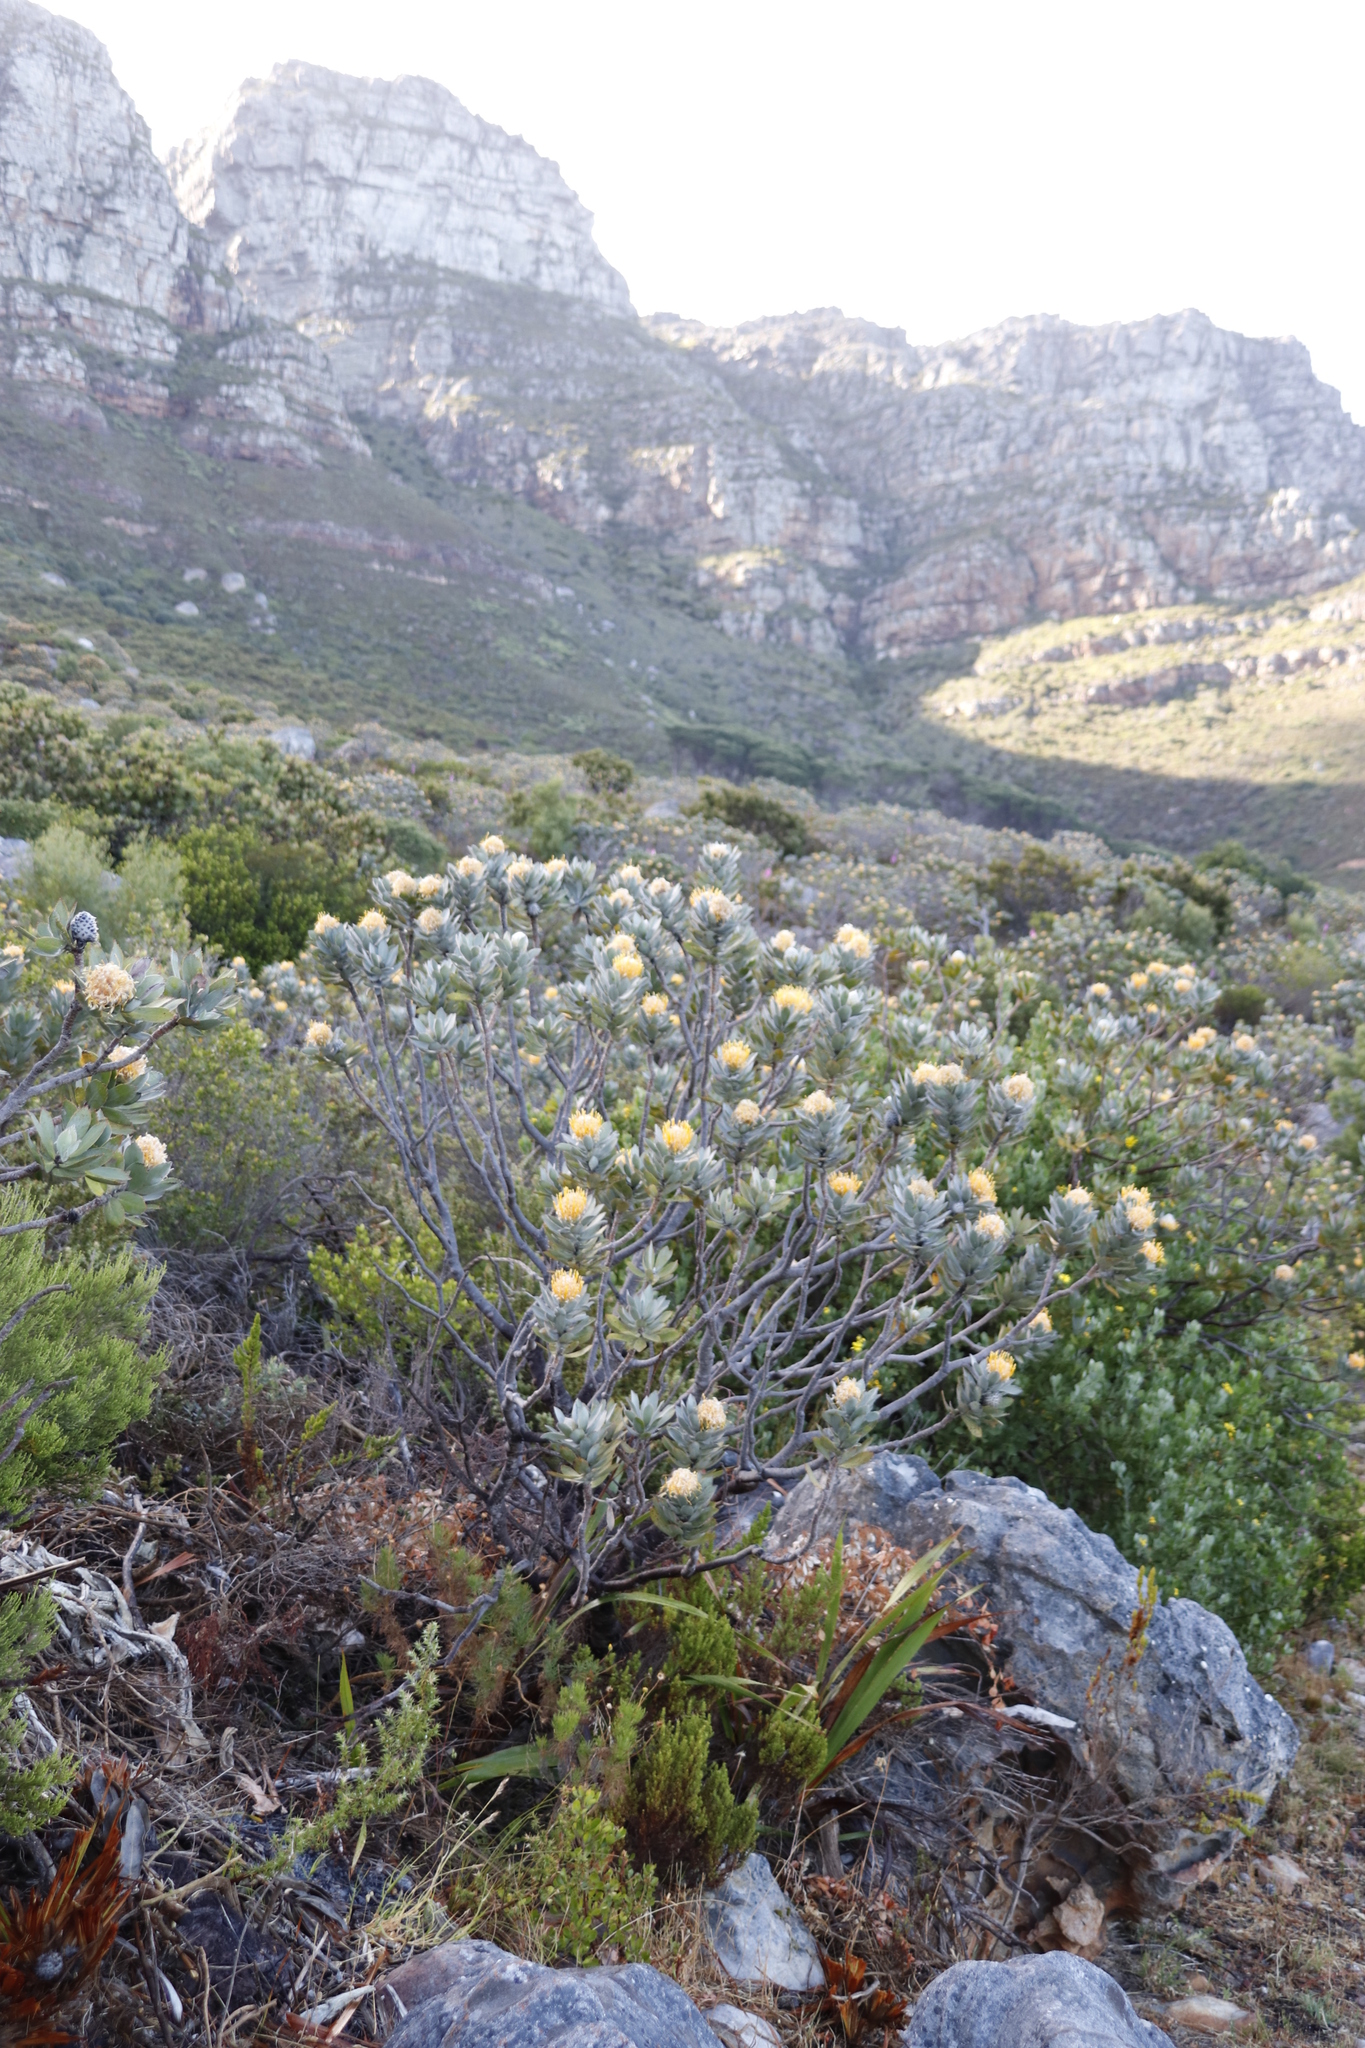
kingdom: Plantae
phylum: Tracheophyta
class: Magnoliopsida
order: Proteales
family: Proteaceae
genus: Leucospermum
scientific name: Leucospermum conocarpodendron
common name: Tree pincushion
